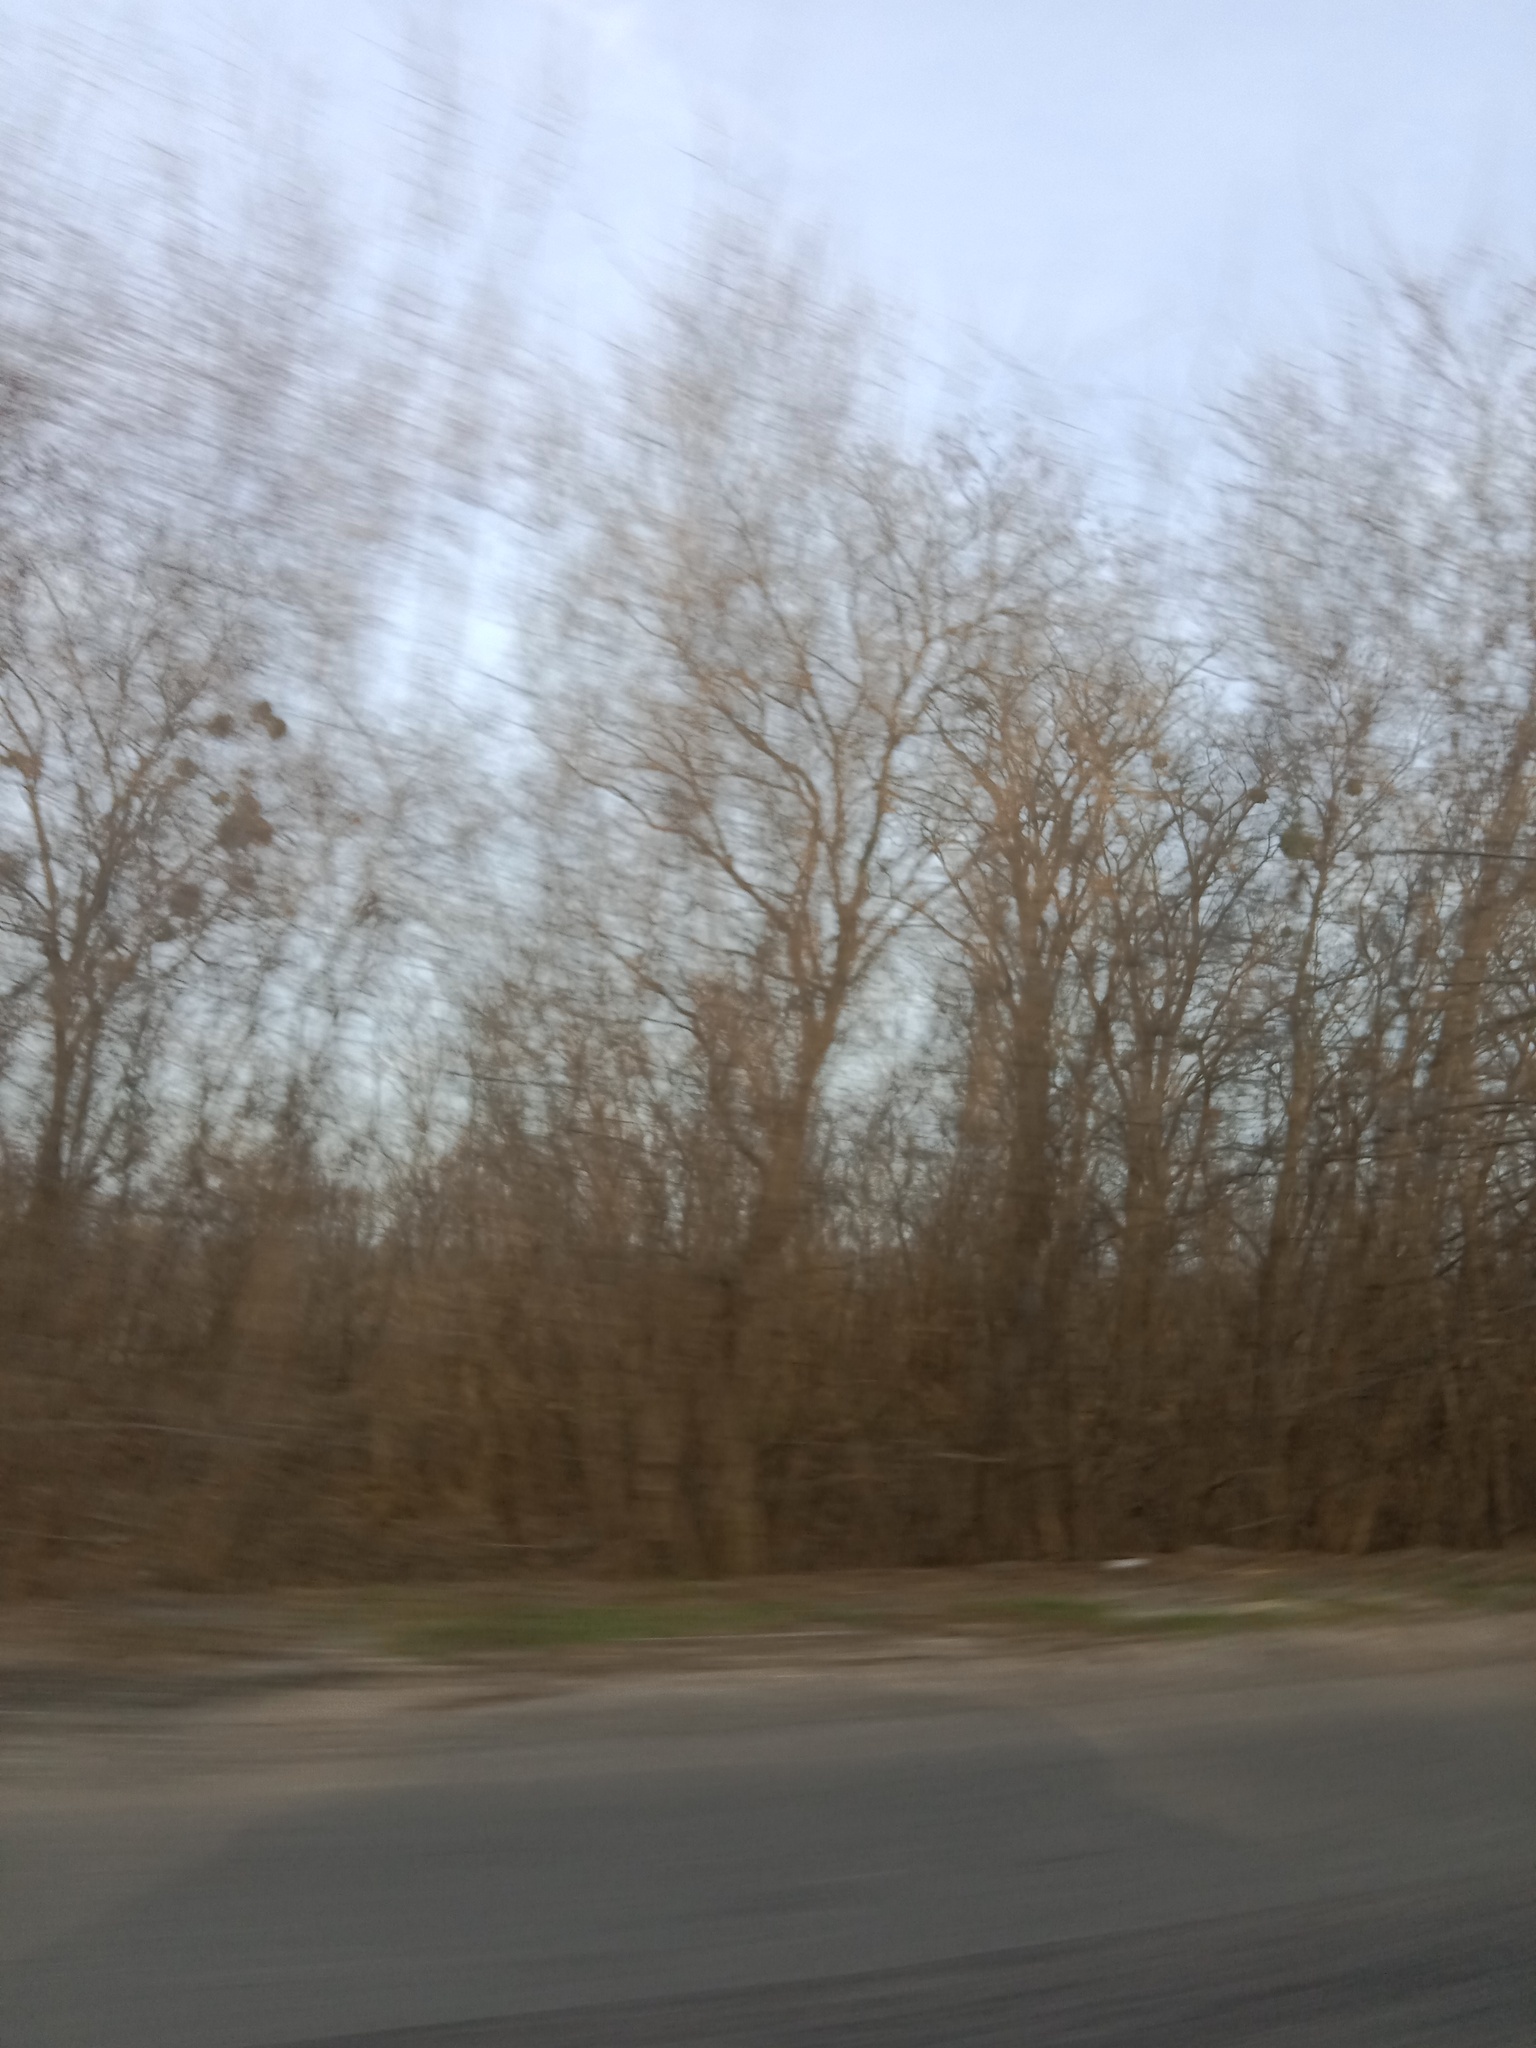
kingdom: Plantae
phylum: Tracheophyta
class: Magnoliopsida
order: Santalales
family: Viscaceae
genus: Viscum
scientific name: Viscum album
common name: Mistletoe
